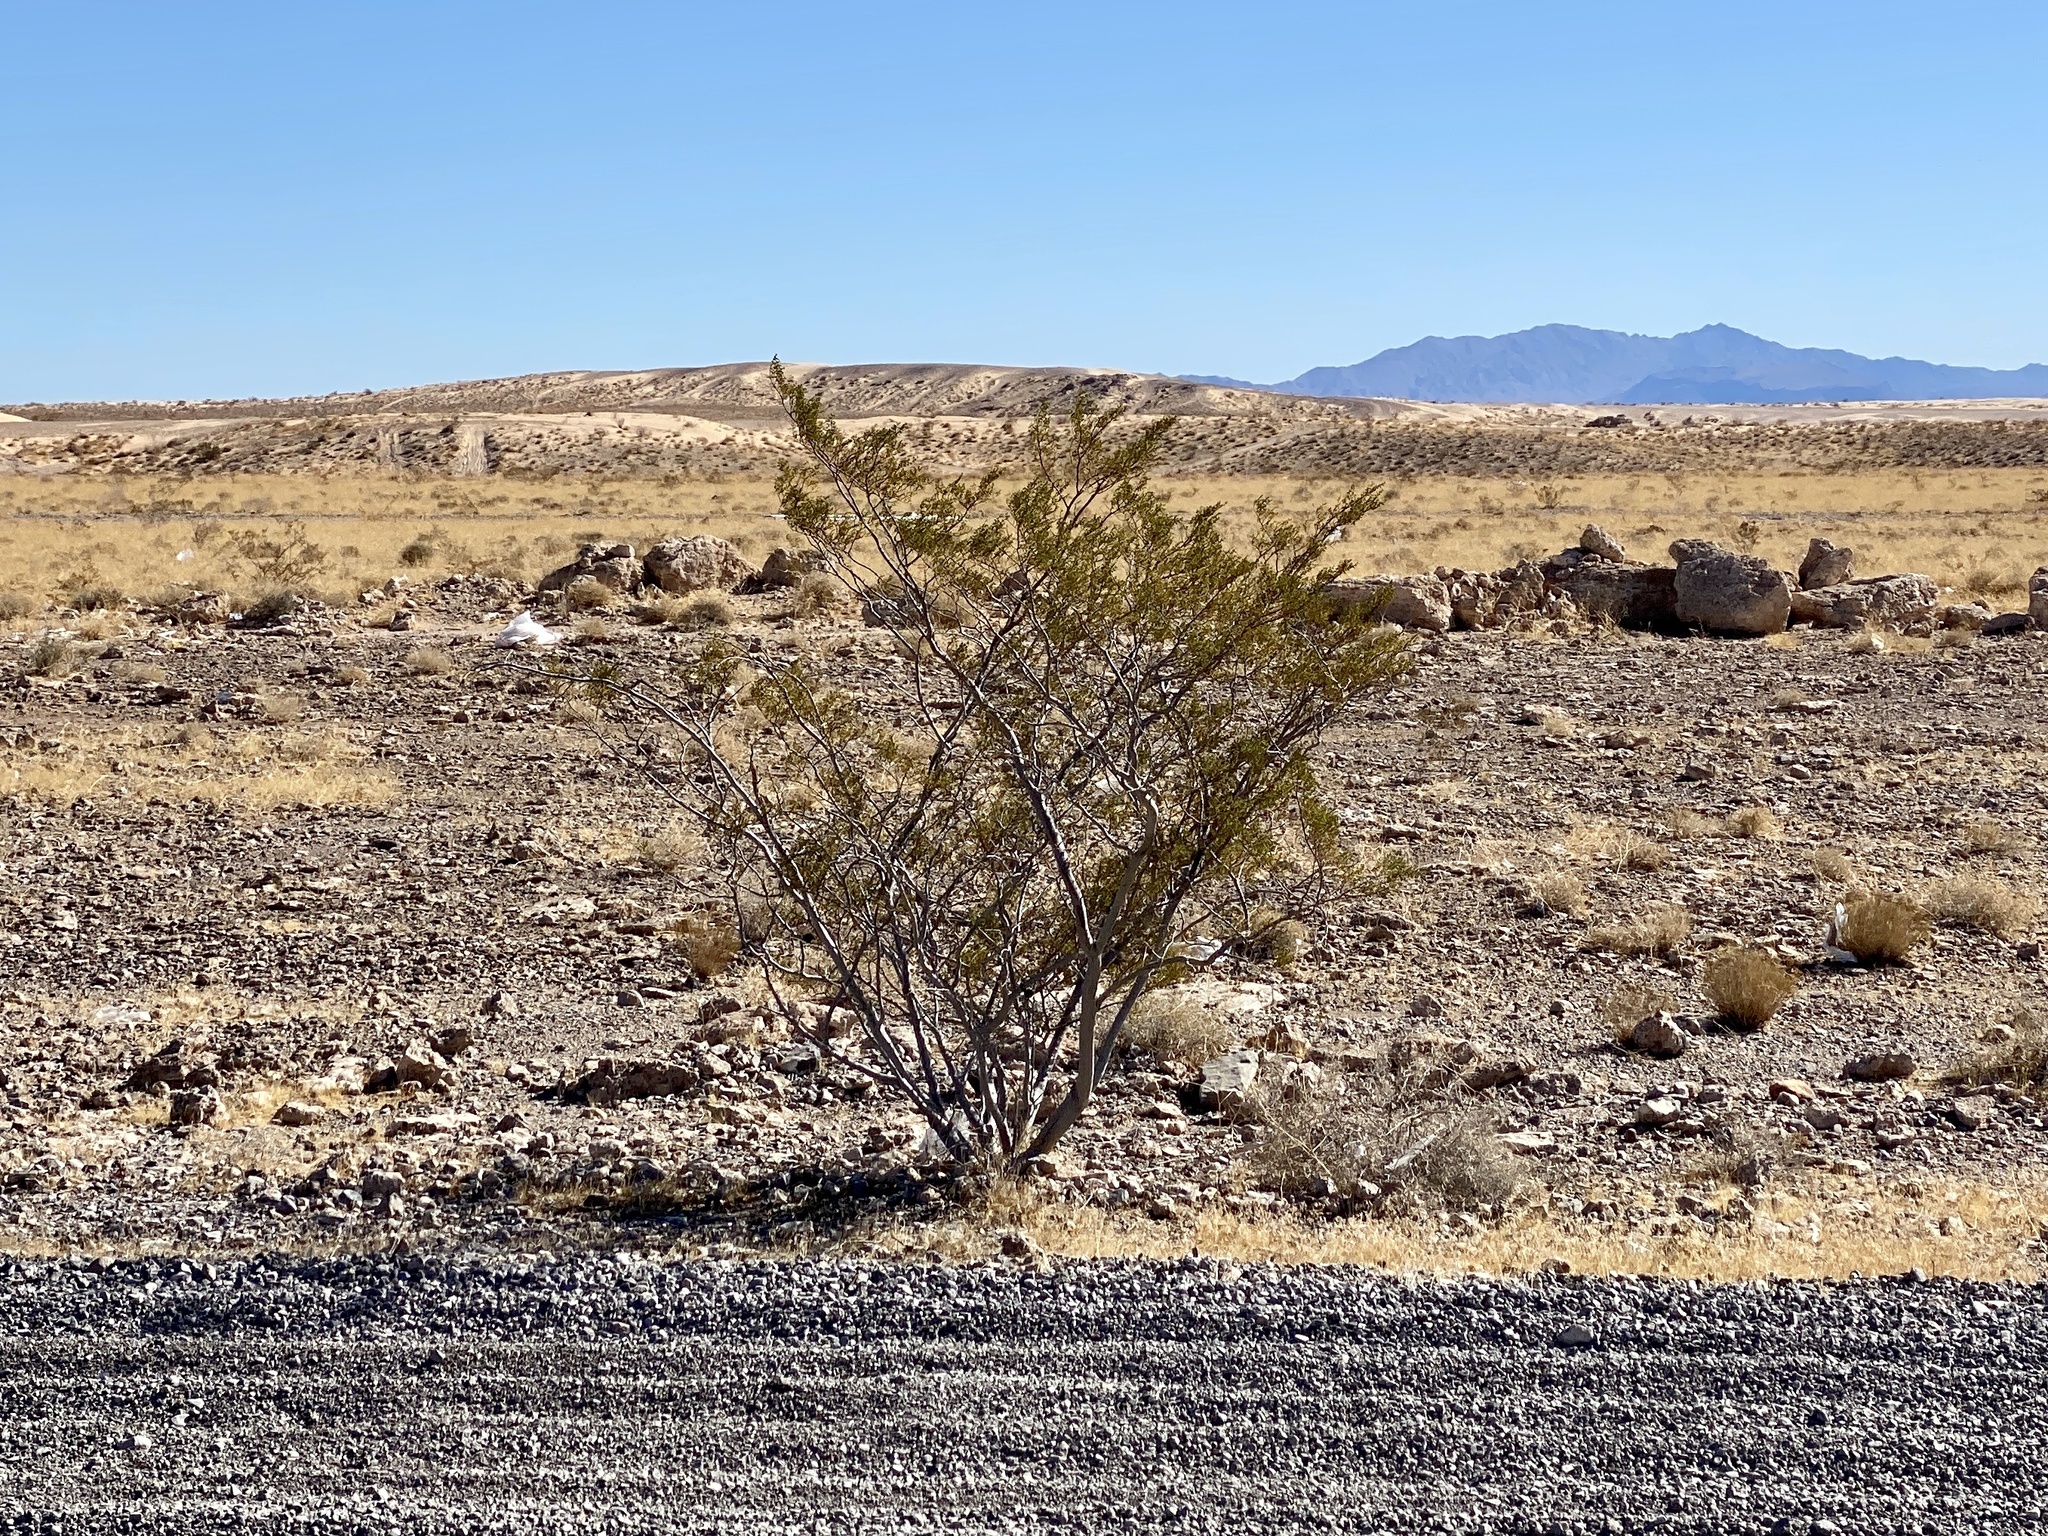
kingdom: Plantae
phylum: Tracheophyta
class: Magnoliopsida
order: Zygophyllales
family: Zygophyllaceae
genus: Larrea
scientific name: Larrea tridentata
